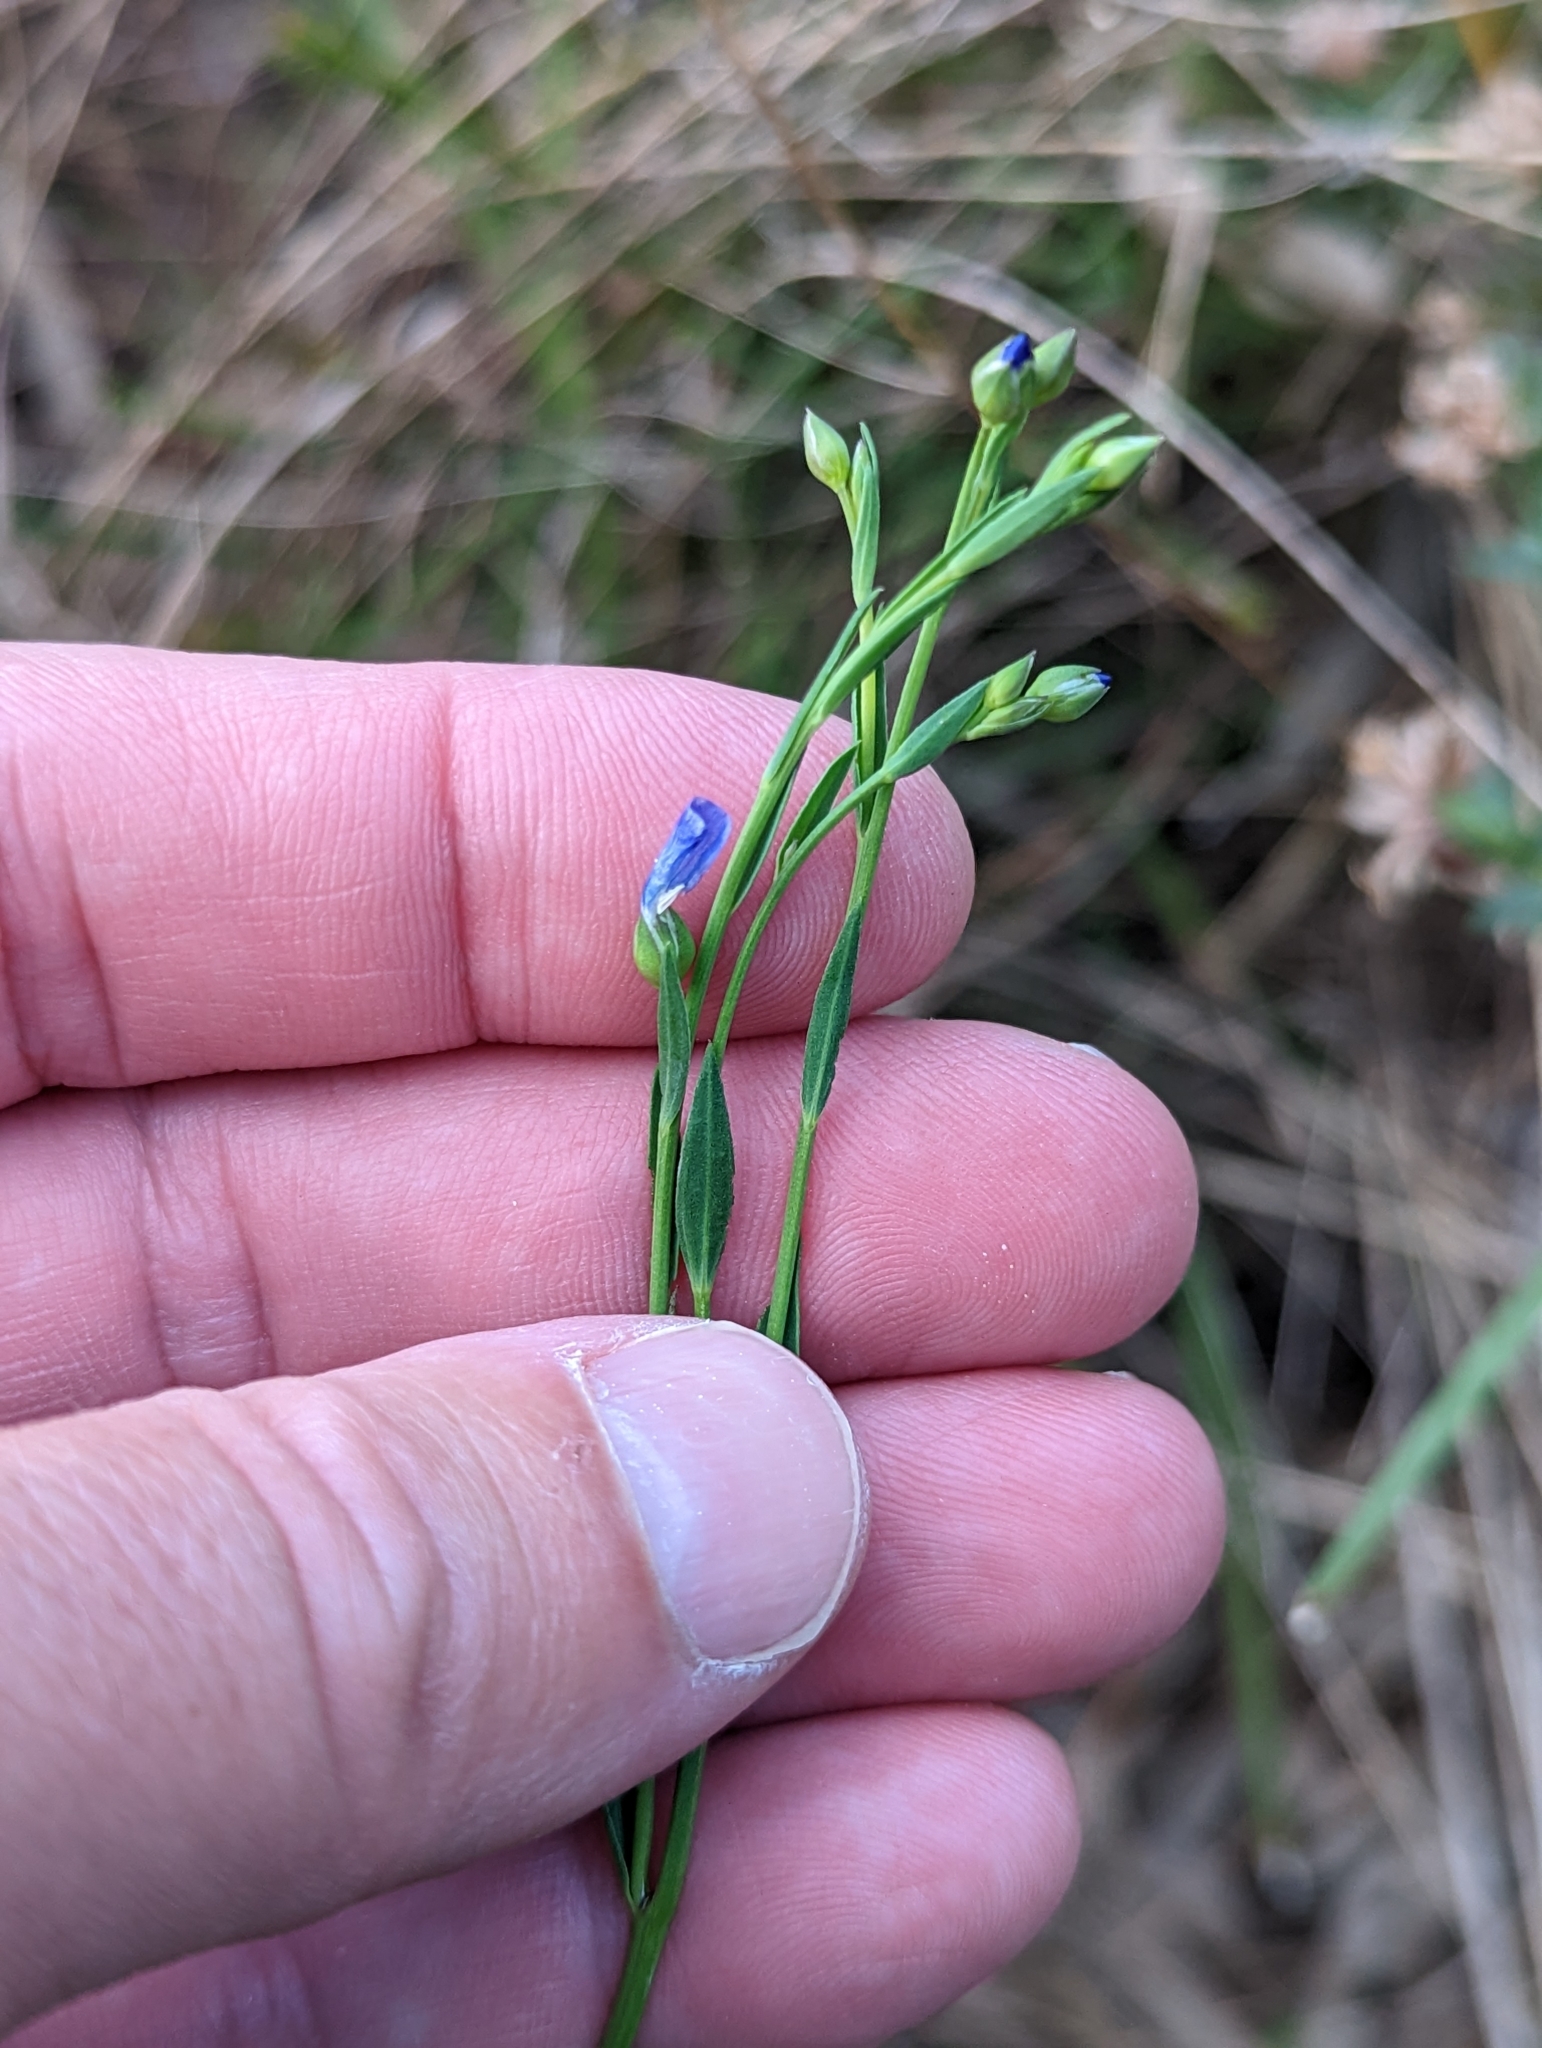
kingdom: Plantae
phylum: Tracheophyta
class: Magnoliopsida
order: Malpighiales
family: Linaceae
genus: Linum
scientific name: Linum marginale
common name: Wild flax
